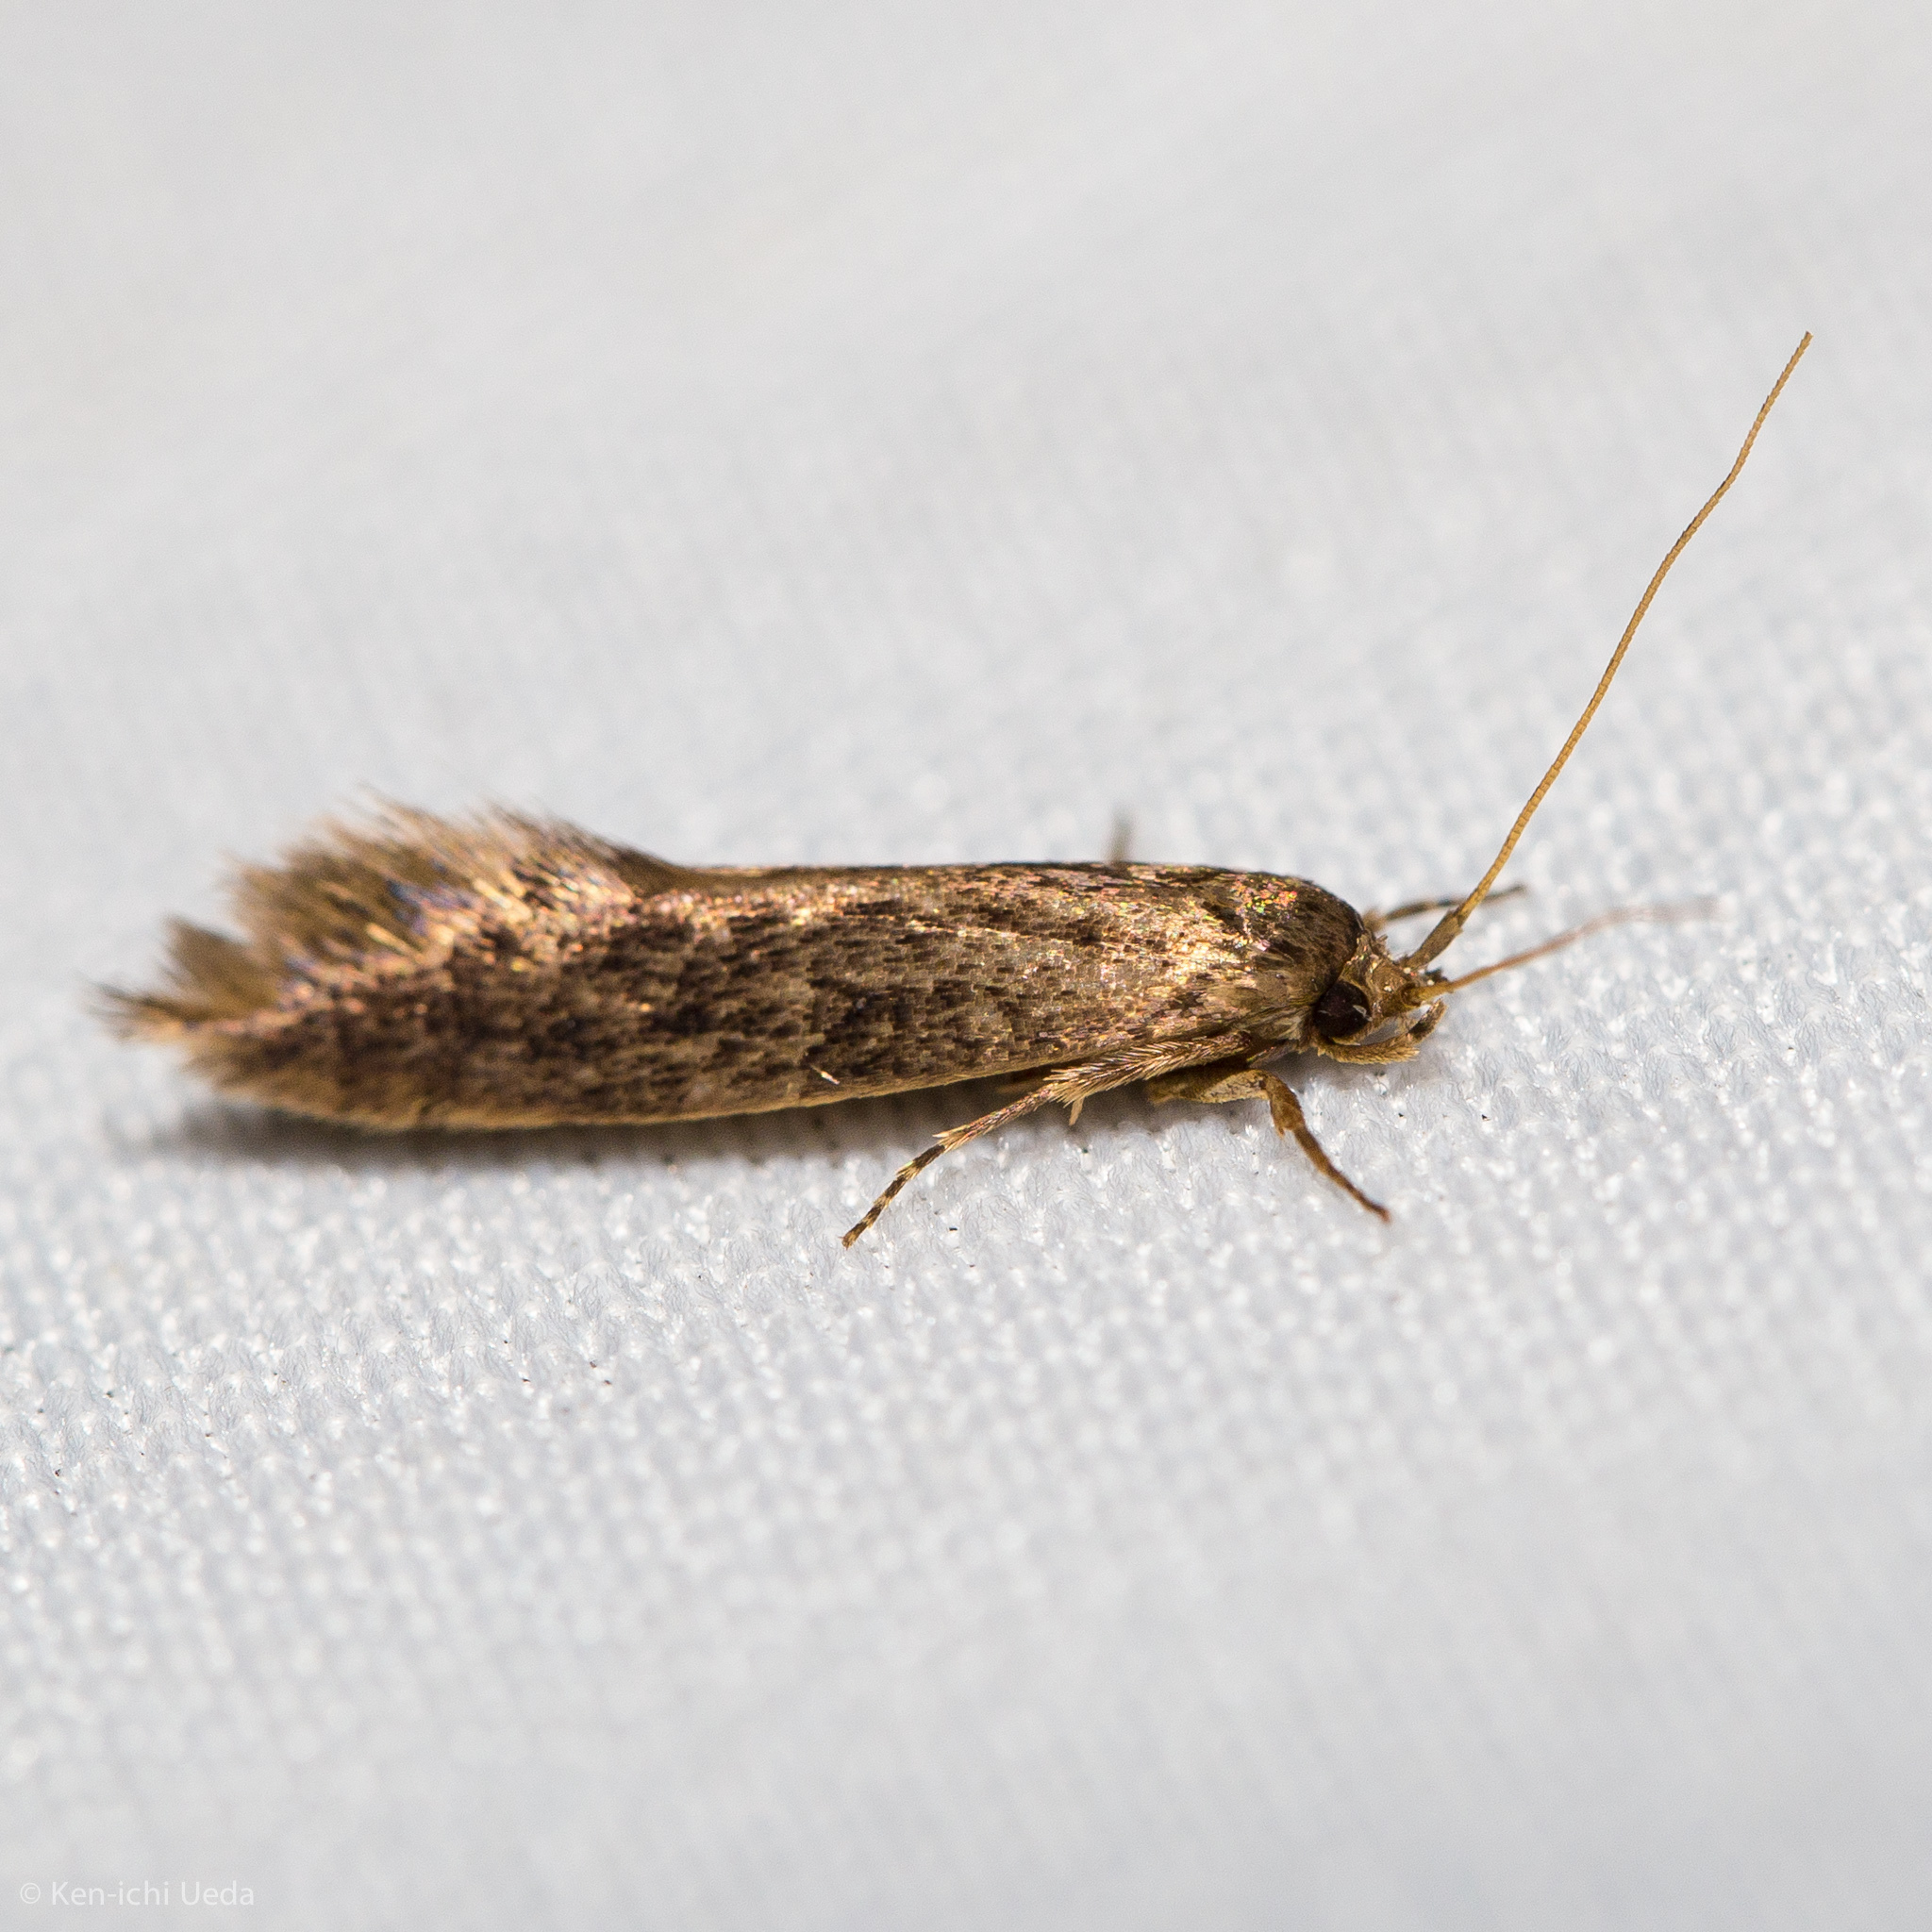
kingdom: Animalia
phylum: Arthropoda
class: Insecta
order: Lepidoptera
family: Tineidae
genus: Opogona
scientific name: Opogona omoscopa
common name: Moth
